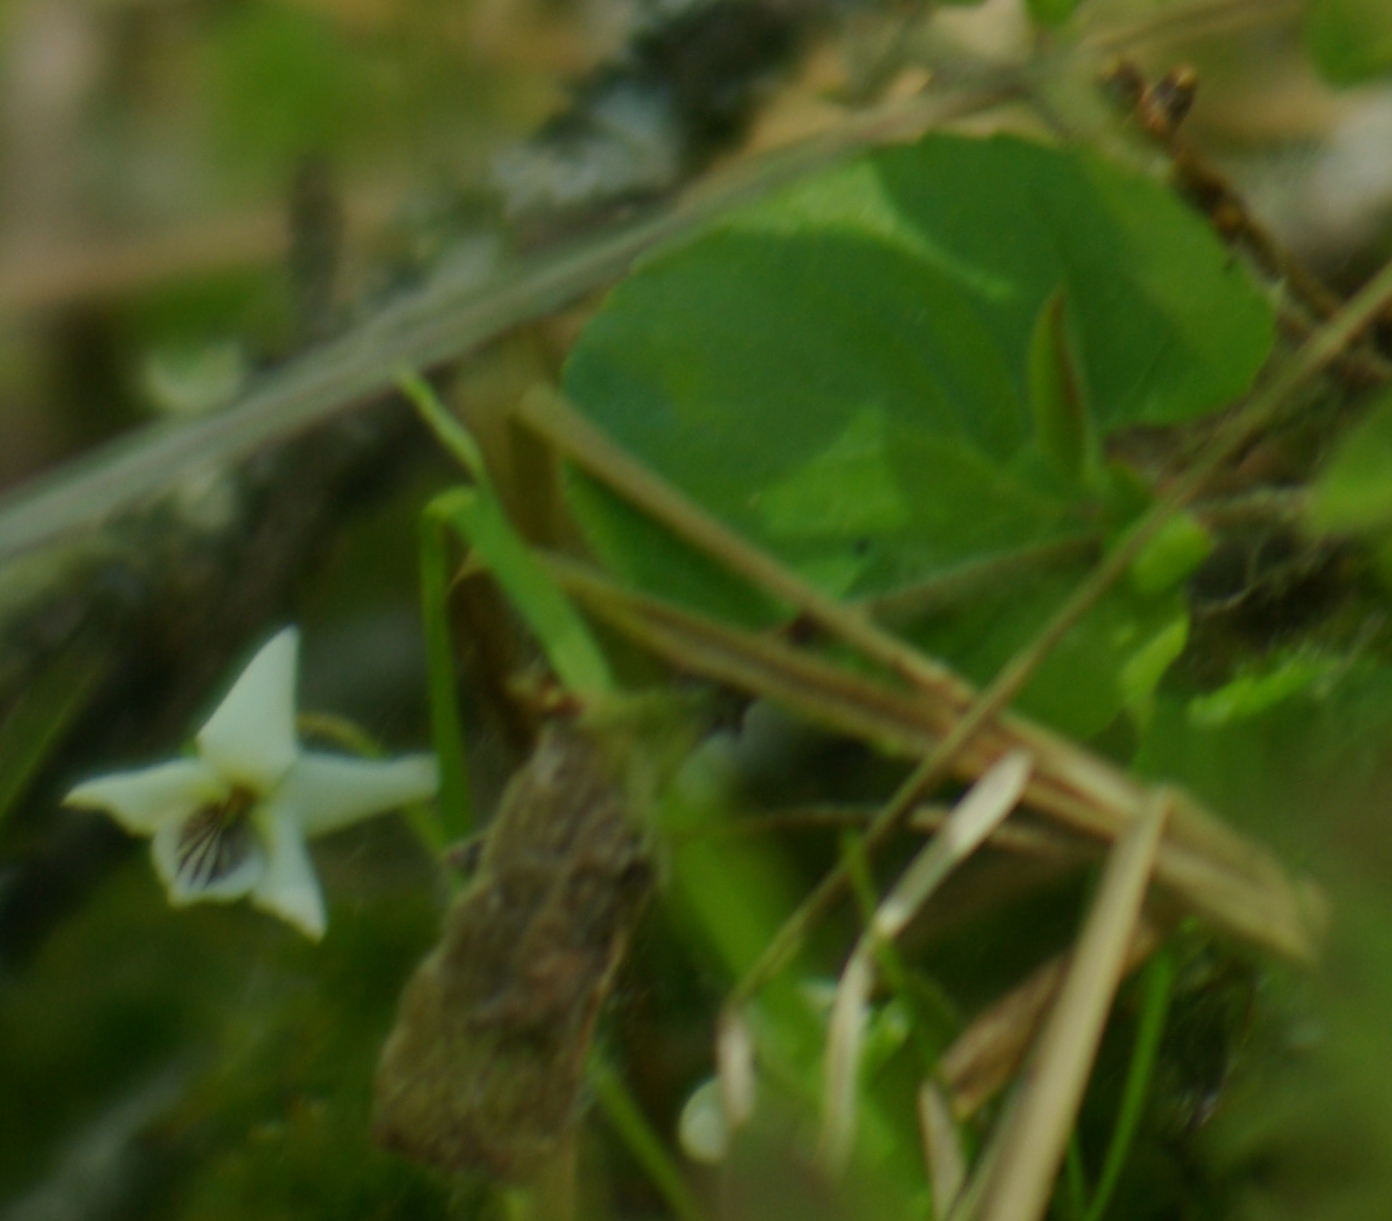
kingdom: Plantae
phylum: Tracheophyta
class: Magnoliopsida
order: Malpighiales
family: Violaceae
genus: Viola
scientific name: Viola renifolia
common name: Kidney-leaf violet
